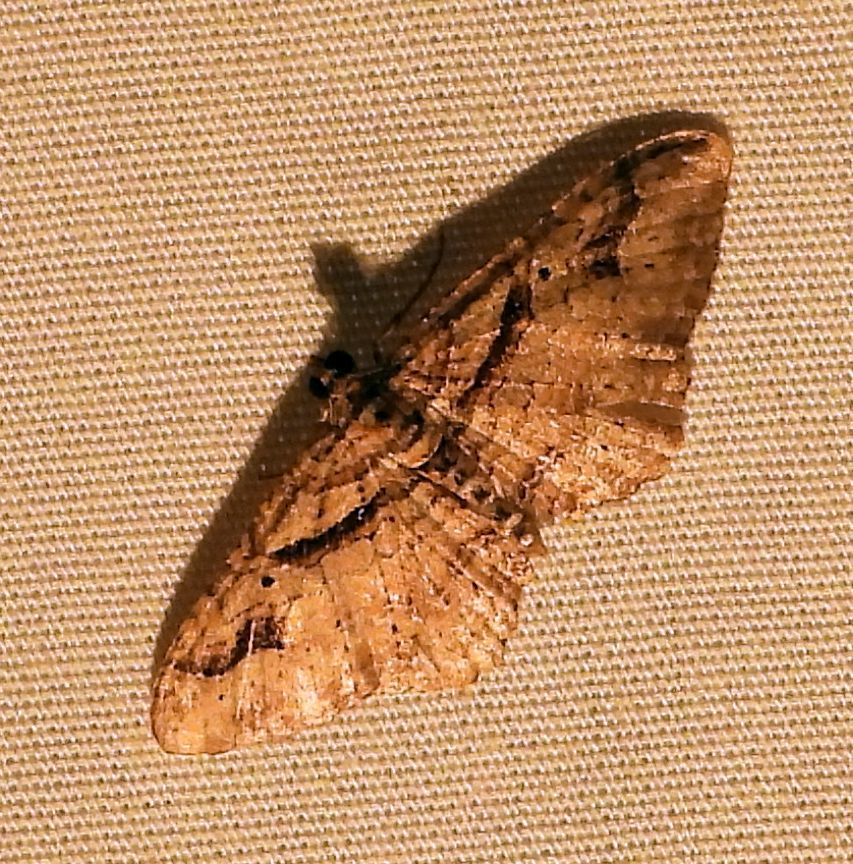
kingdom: Animalia
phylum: Arthropoda
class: Insecta
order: Lepidoptera
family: Geometridae
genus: Costaconvexa
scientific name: Costaconvexa centrostrigaria
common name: Bent-line carpet
